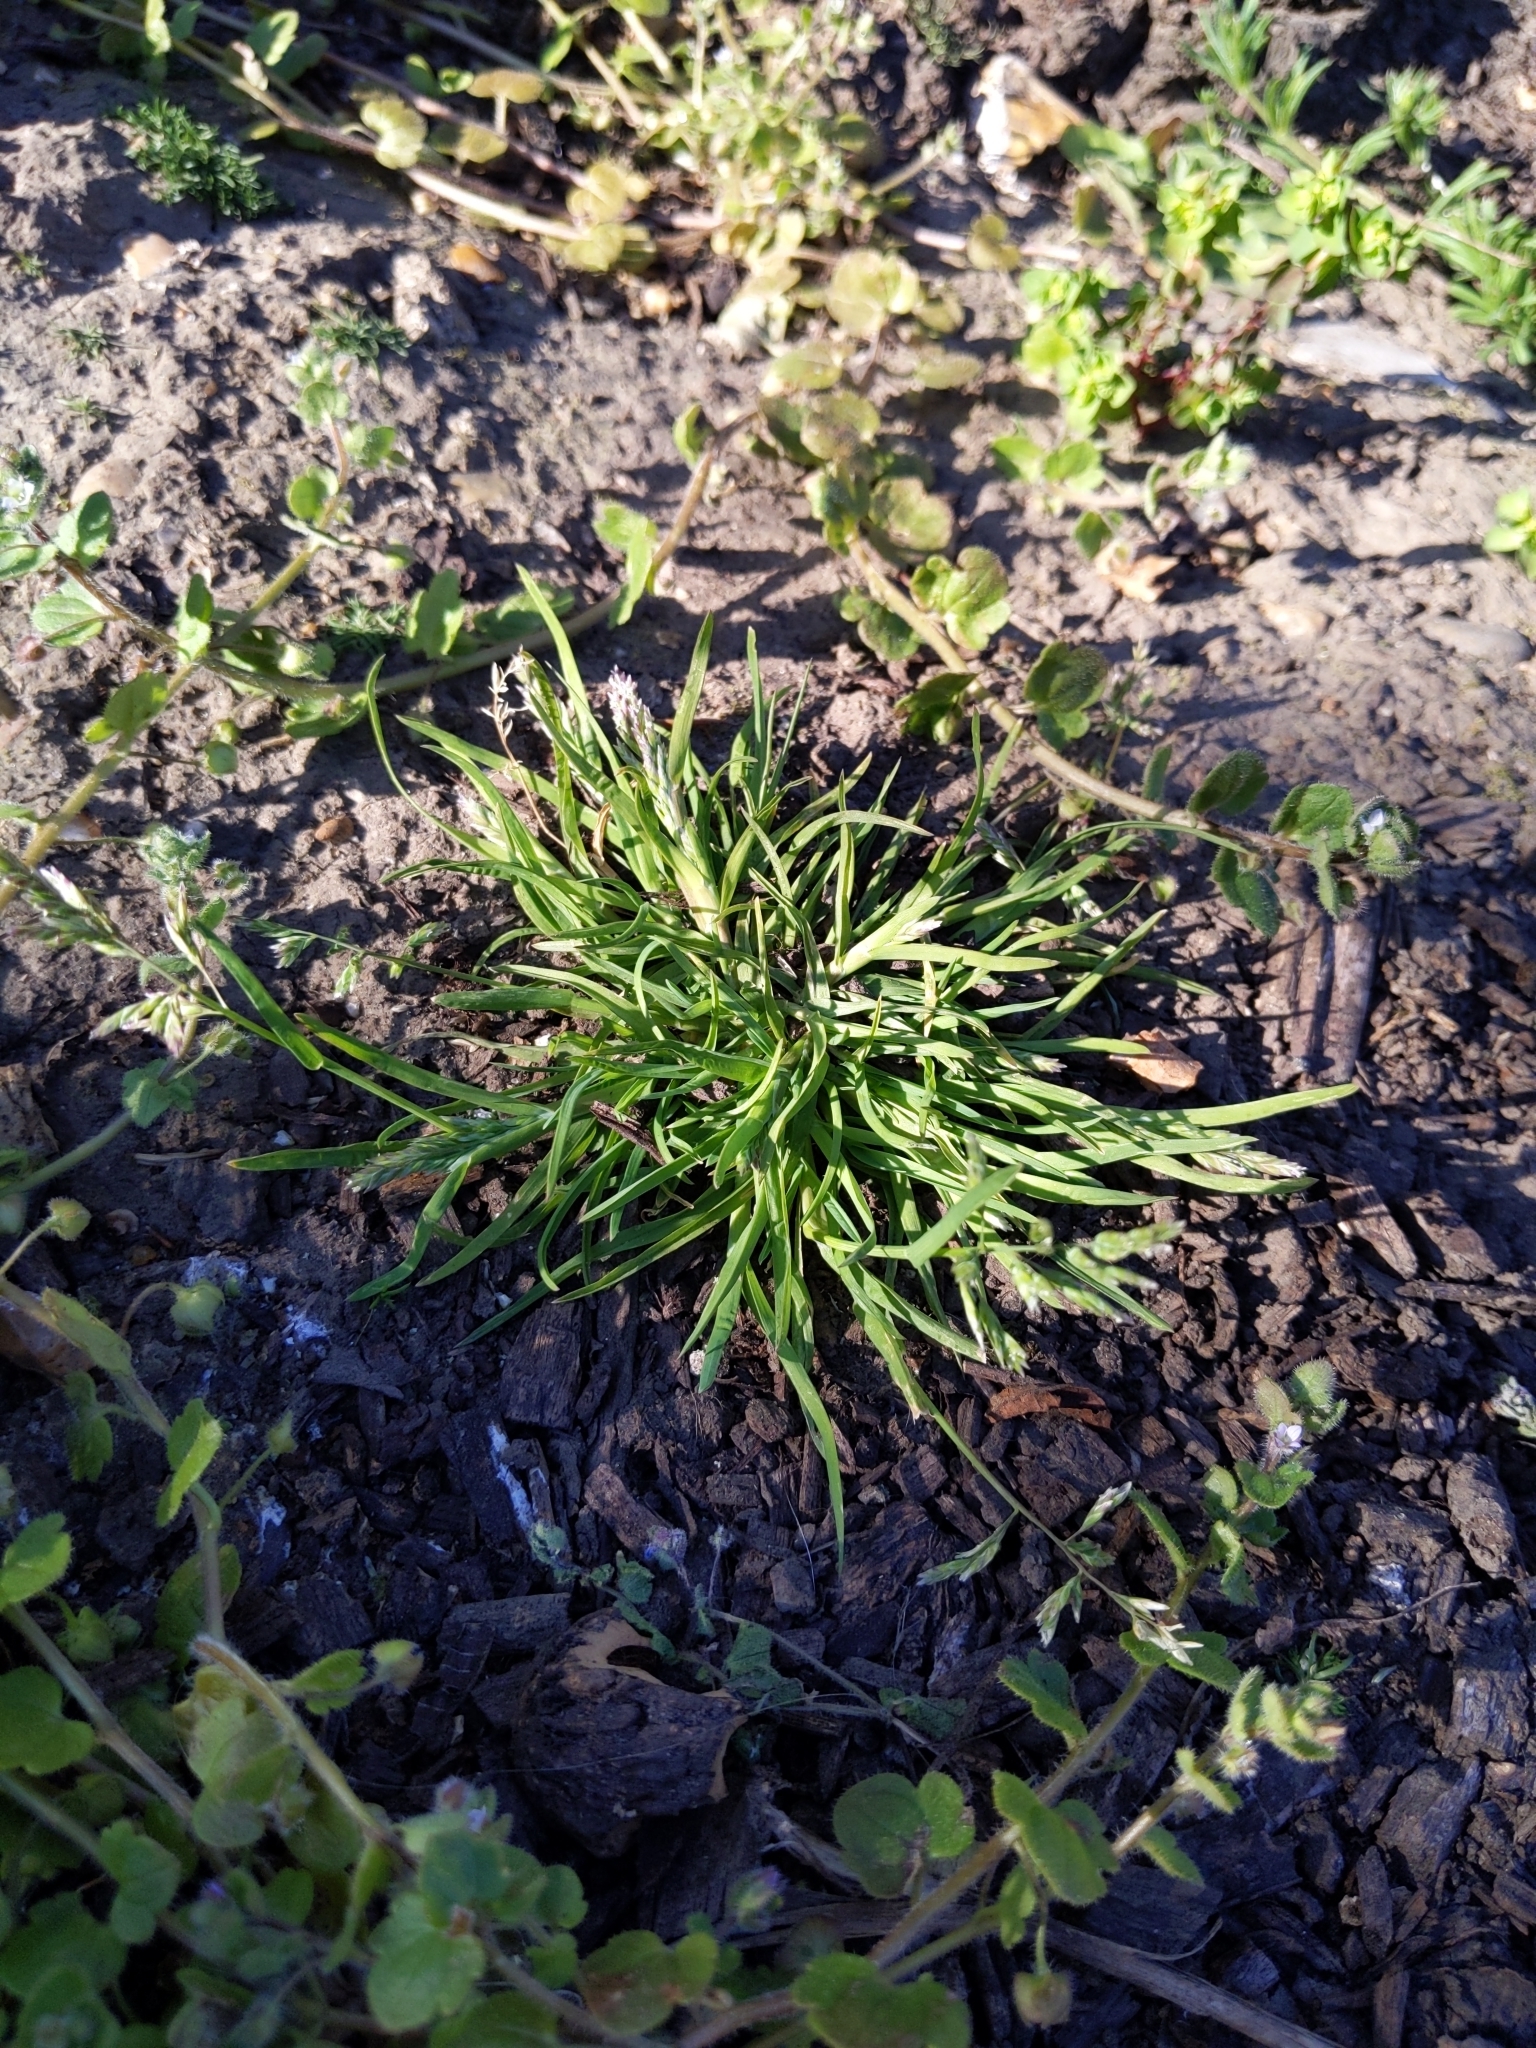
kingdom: Plantae
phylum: Tracheophyta
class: Liliopsida
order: Poales
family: Poaceae
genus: Poa
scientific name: Poa annua
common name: Annual bluegrass
